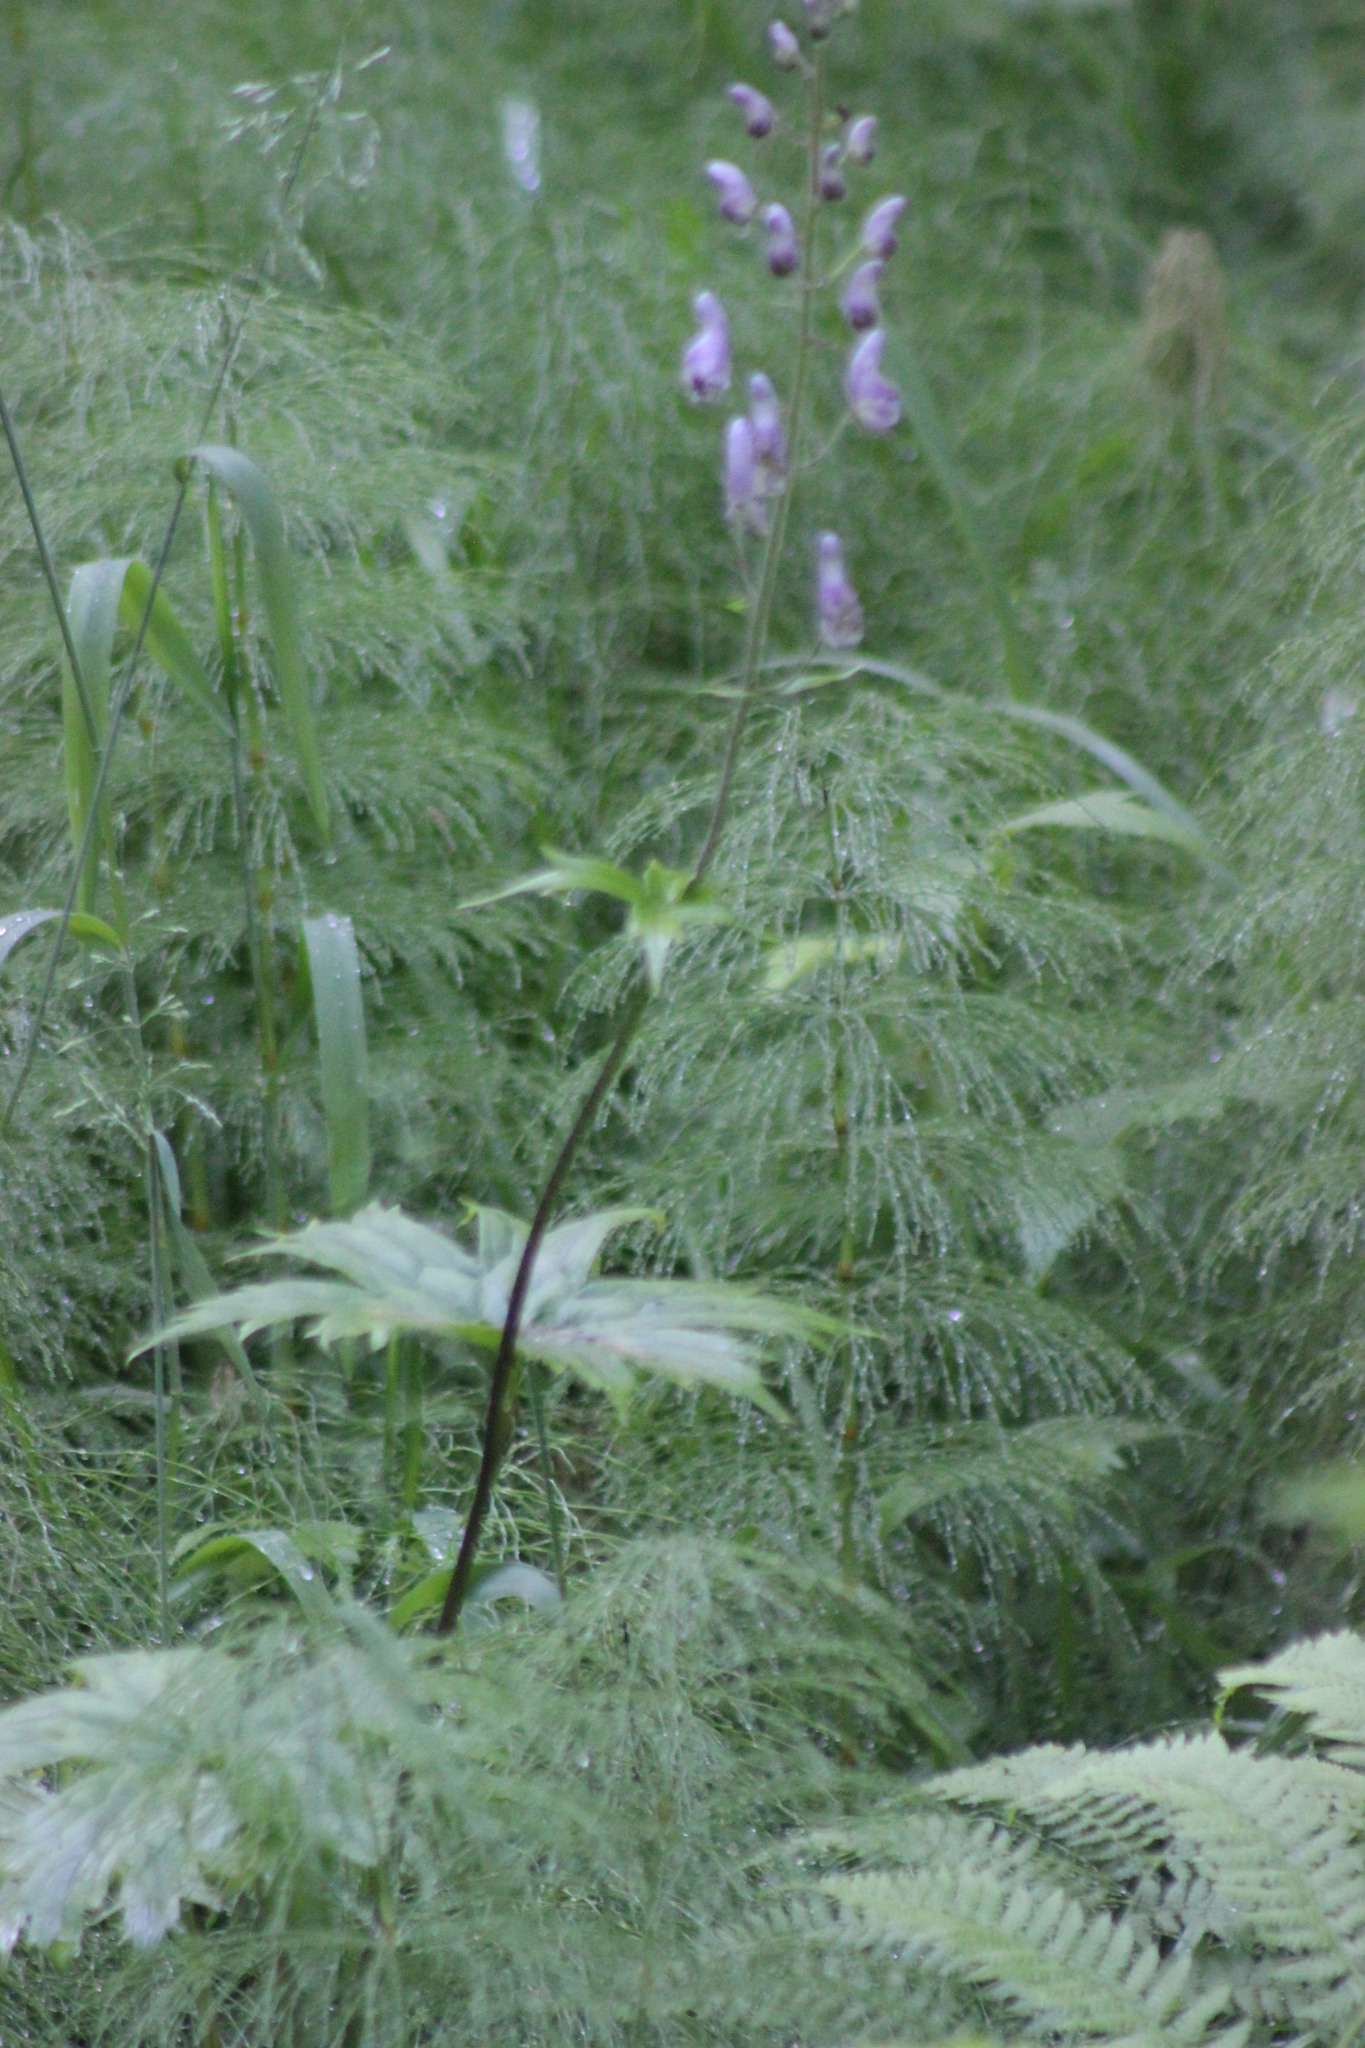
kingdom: Plantae
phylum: Tracheophyta
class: Magnoliopsida
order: Ranunculales
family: Ranunculaceae
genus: Aconitum
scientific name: Aconitum septentrionale
